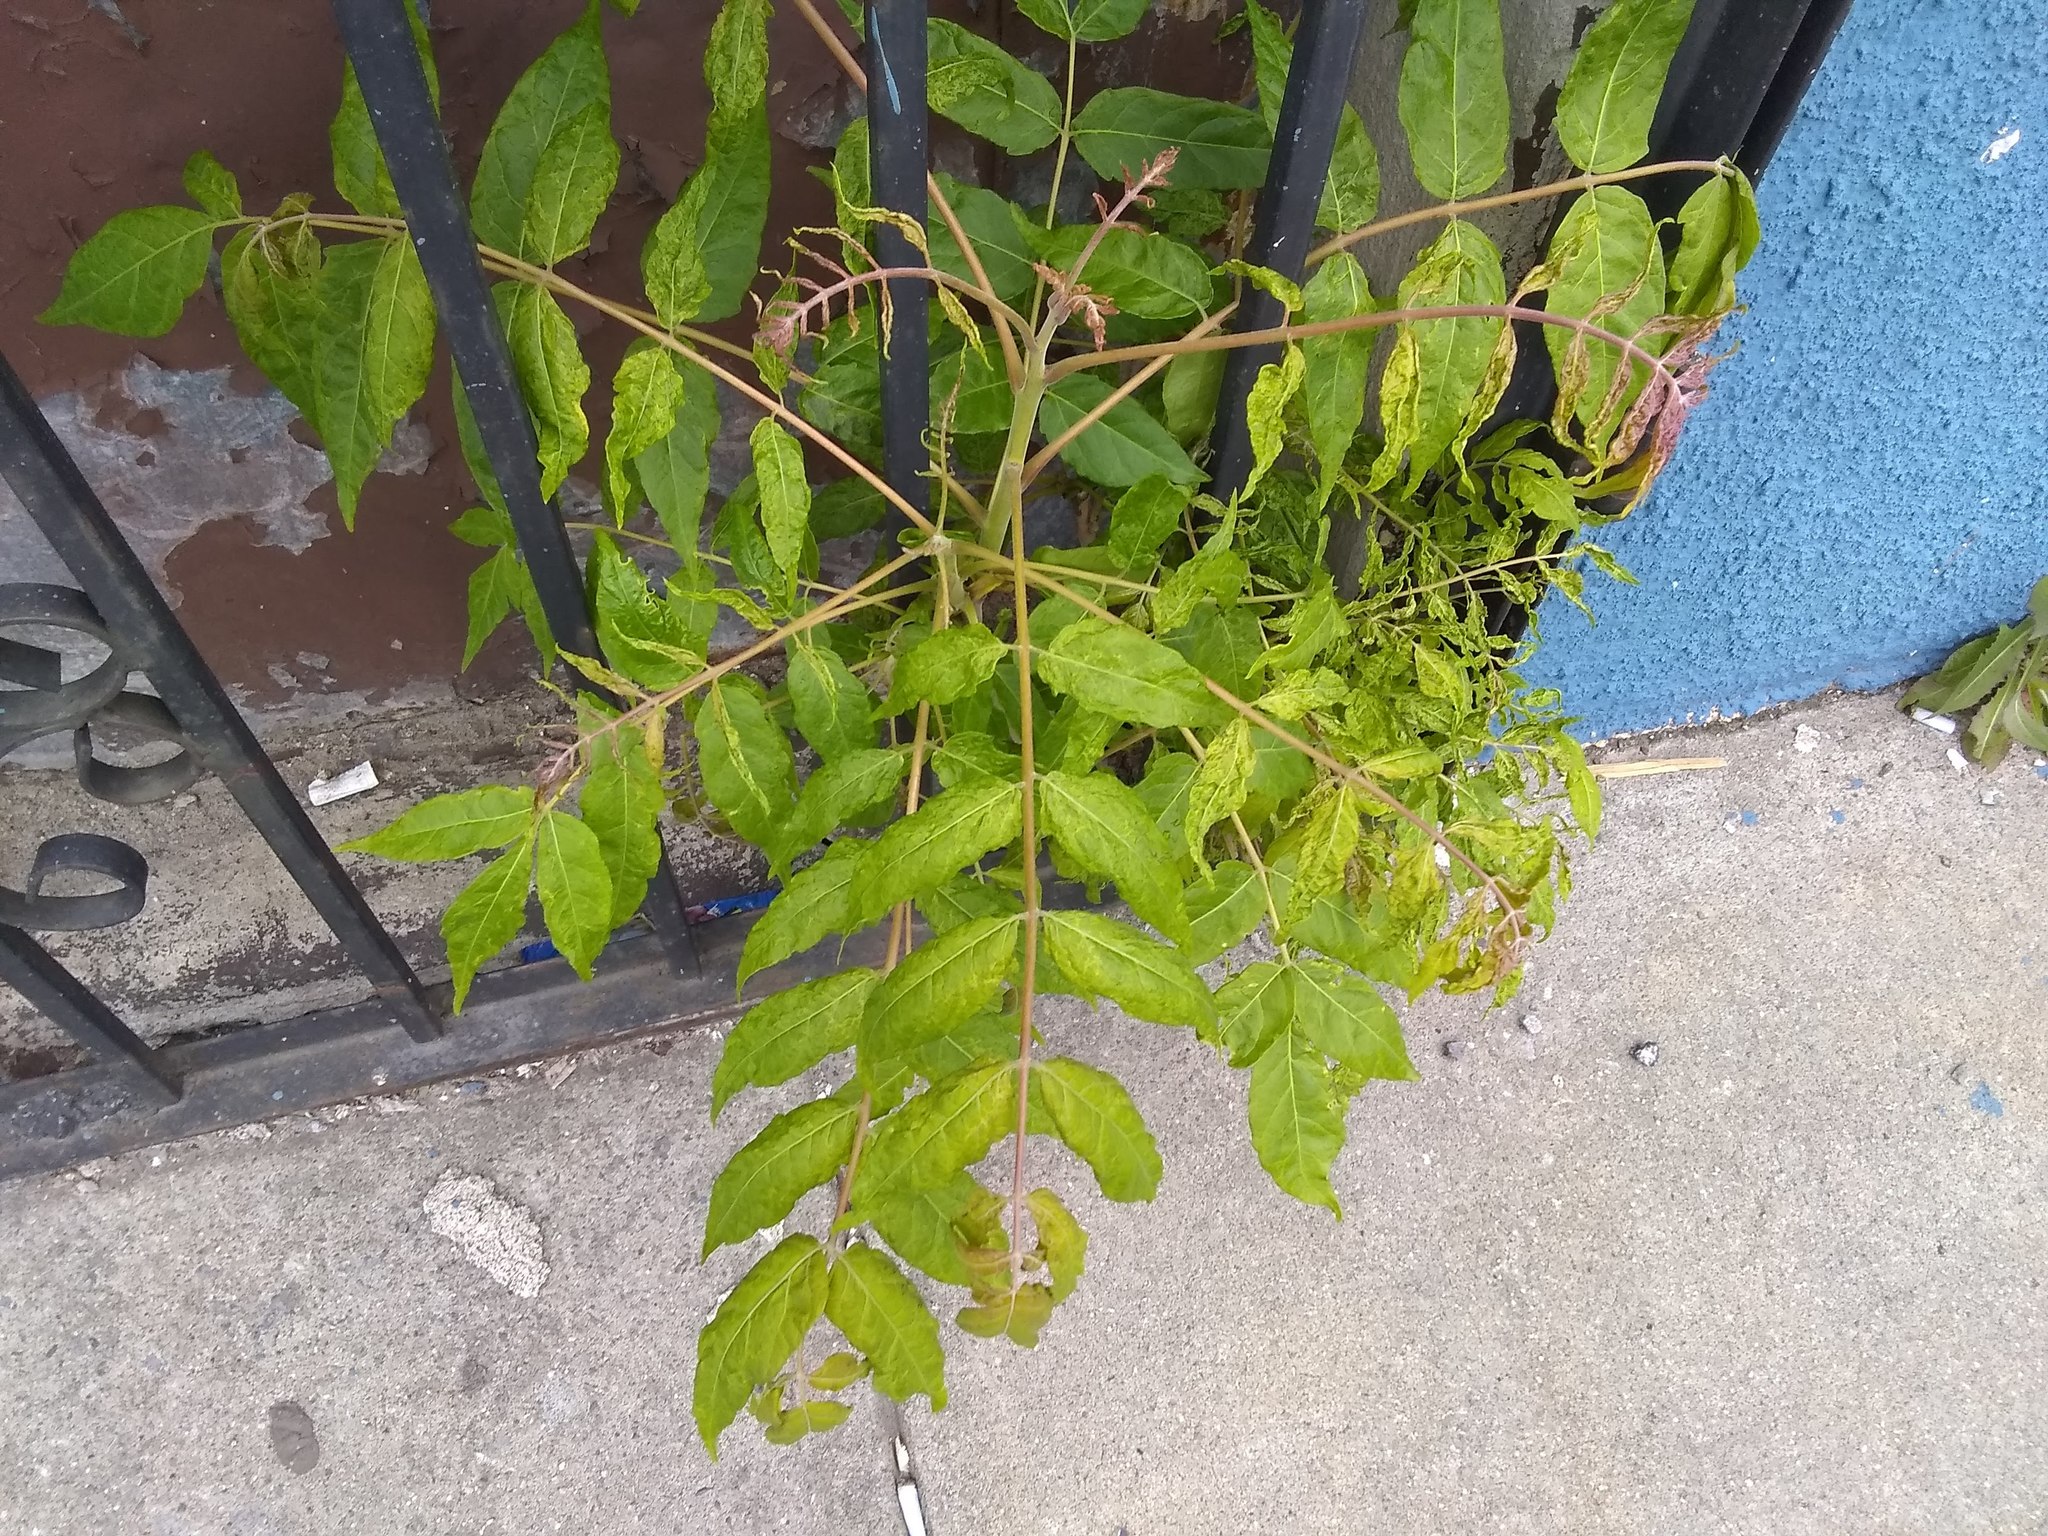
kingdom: Plantae
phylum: Tracheophyta
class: Magnoliopsida
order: Sapindales
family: Simaroubaceae
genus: Ailanthus
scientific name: Ailanthus altissima
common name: Tree-of-heaven
